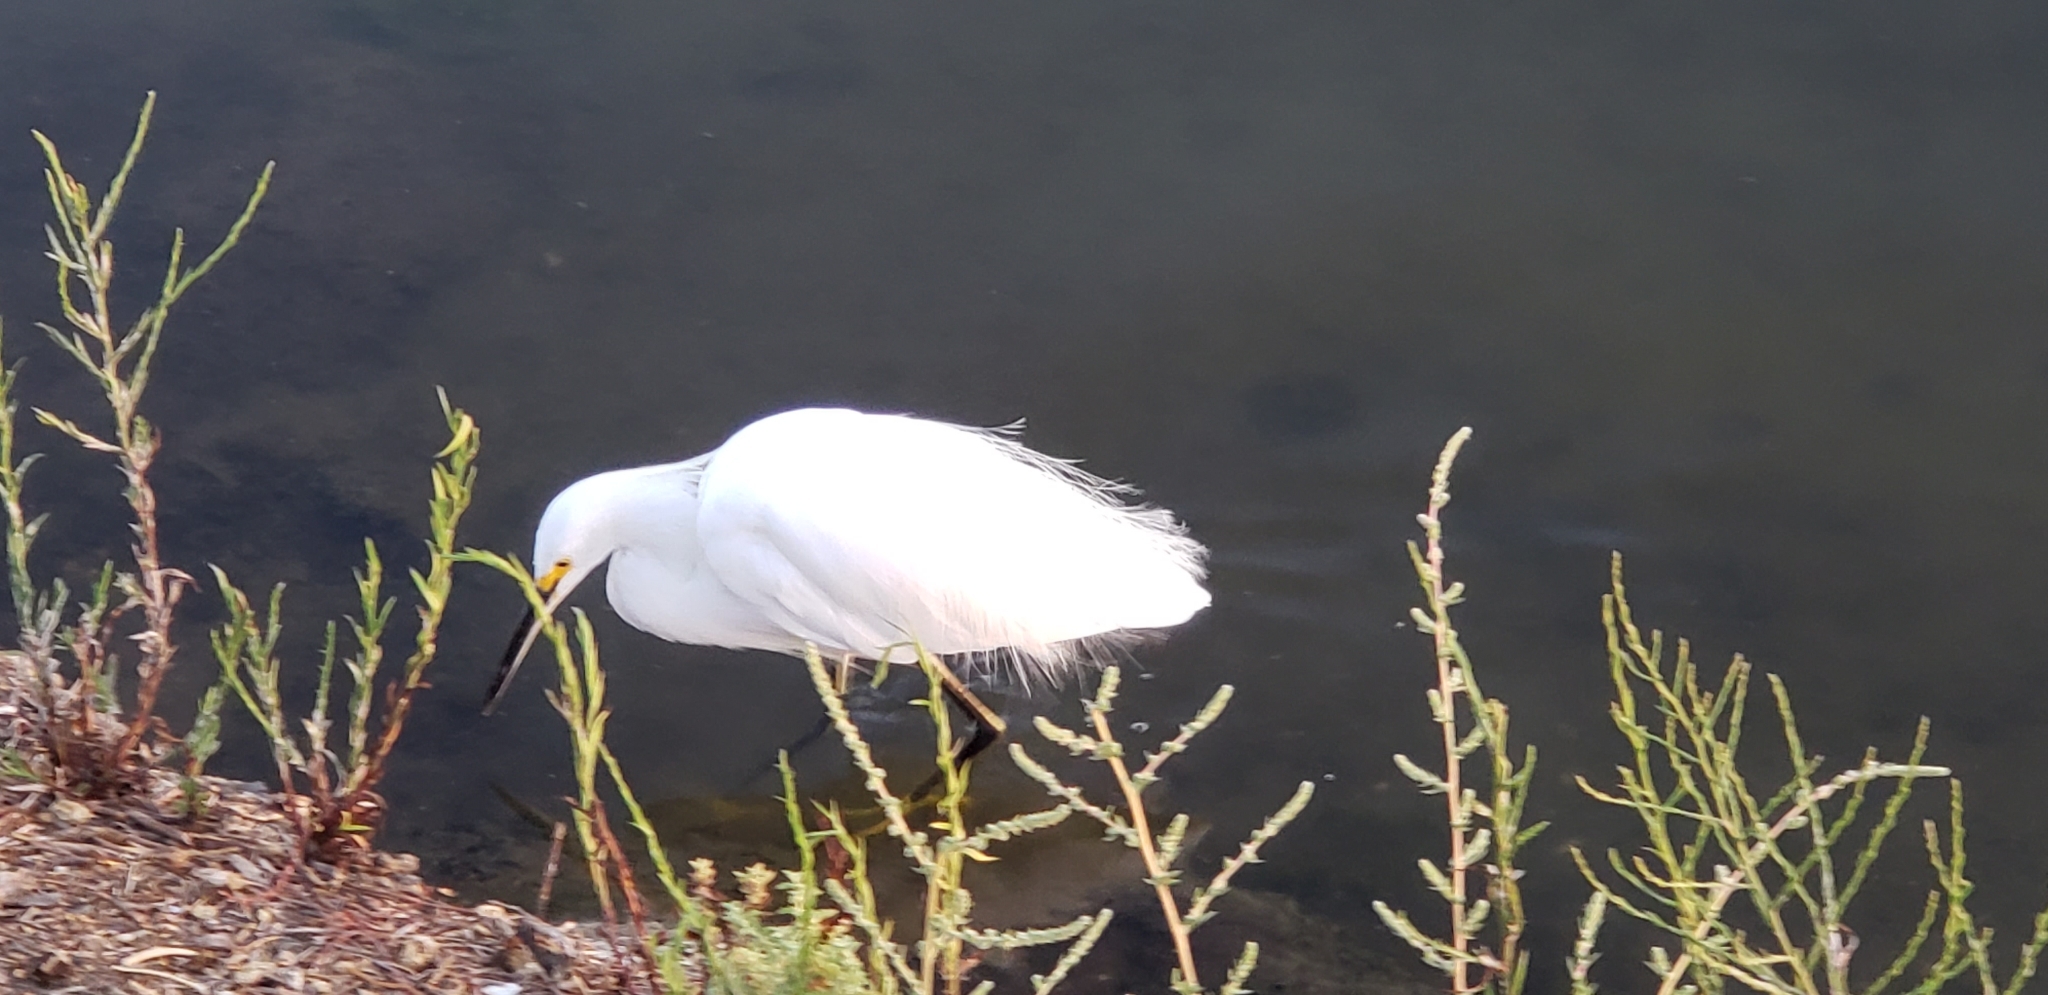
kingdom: Animalia
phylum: Chordata
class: Aves
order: Pelecaniformes
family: Ardeidae
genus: Egretta
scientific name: Egretta thula
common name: Snowy egret
